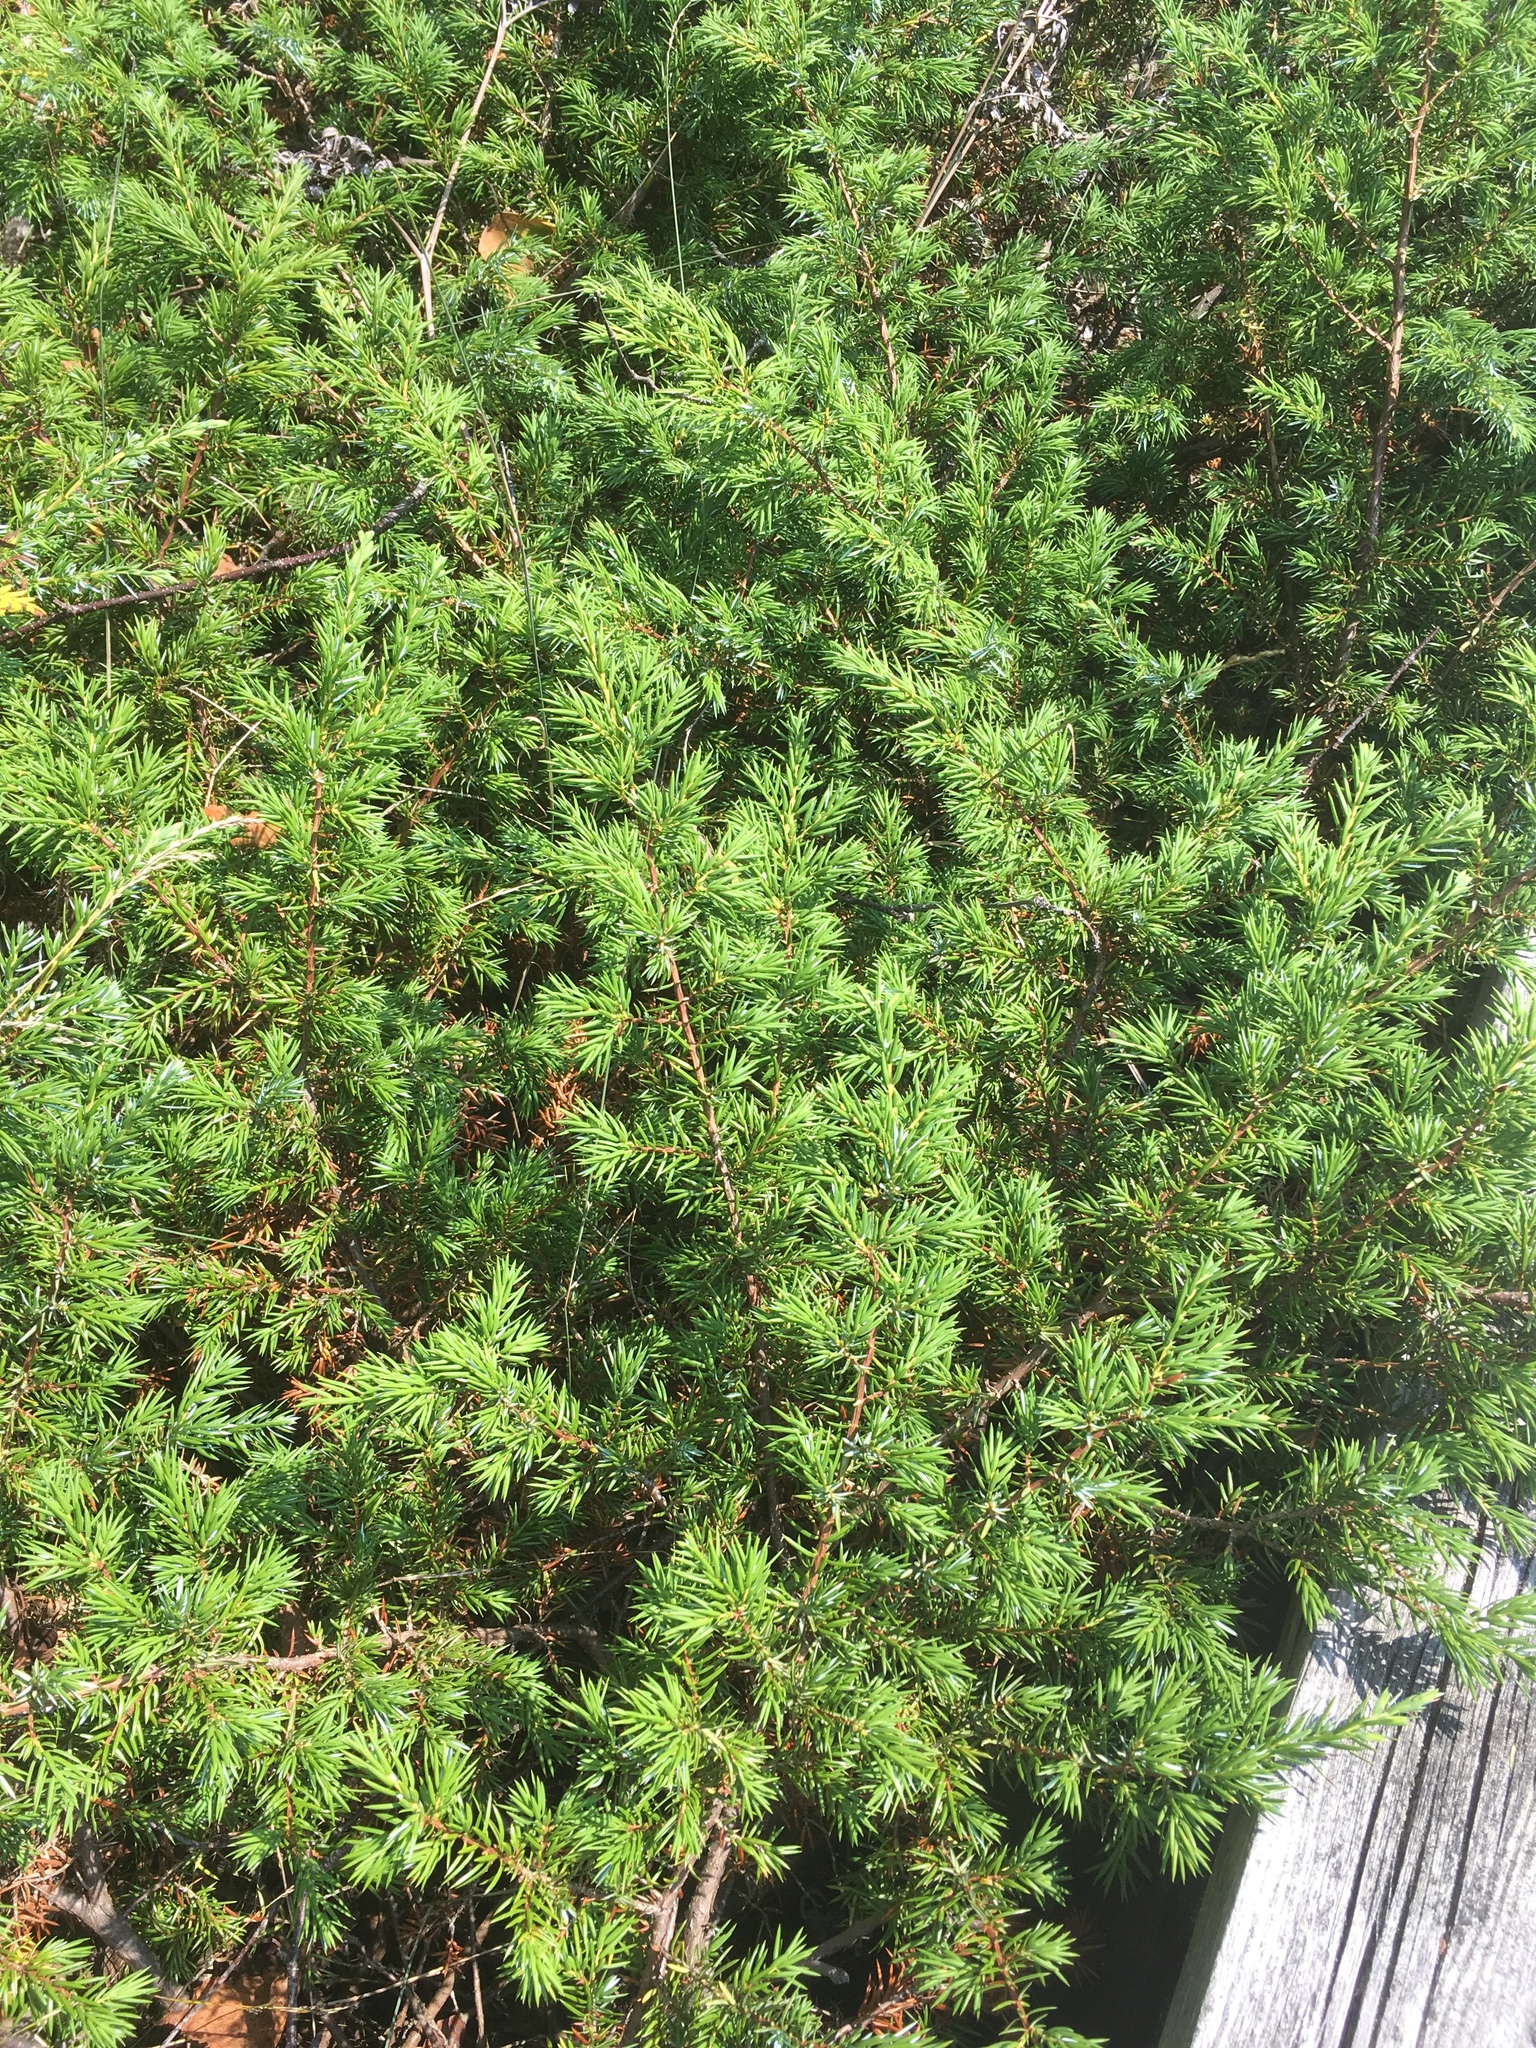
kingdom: Plantae
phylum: Tracheophyta
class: Pinopsida
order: Pinales
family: Cupressaceae
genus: Juniperus
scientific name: Juniperus communis
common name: Common juniper
